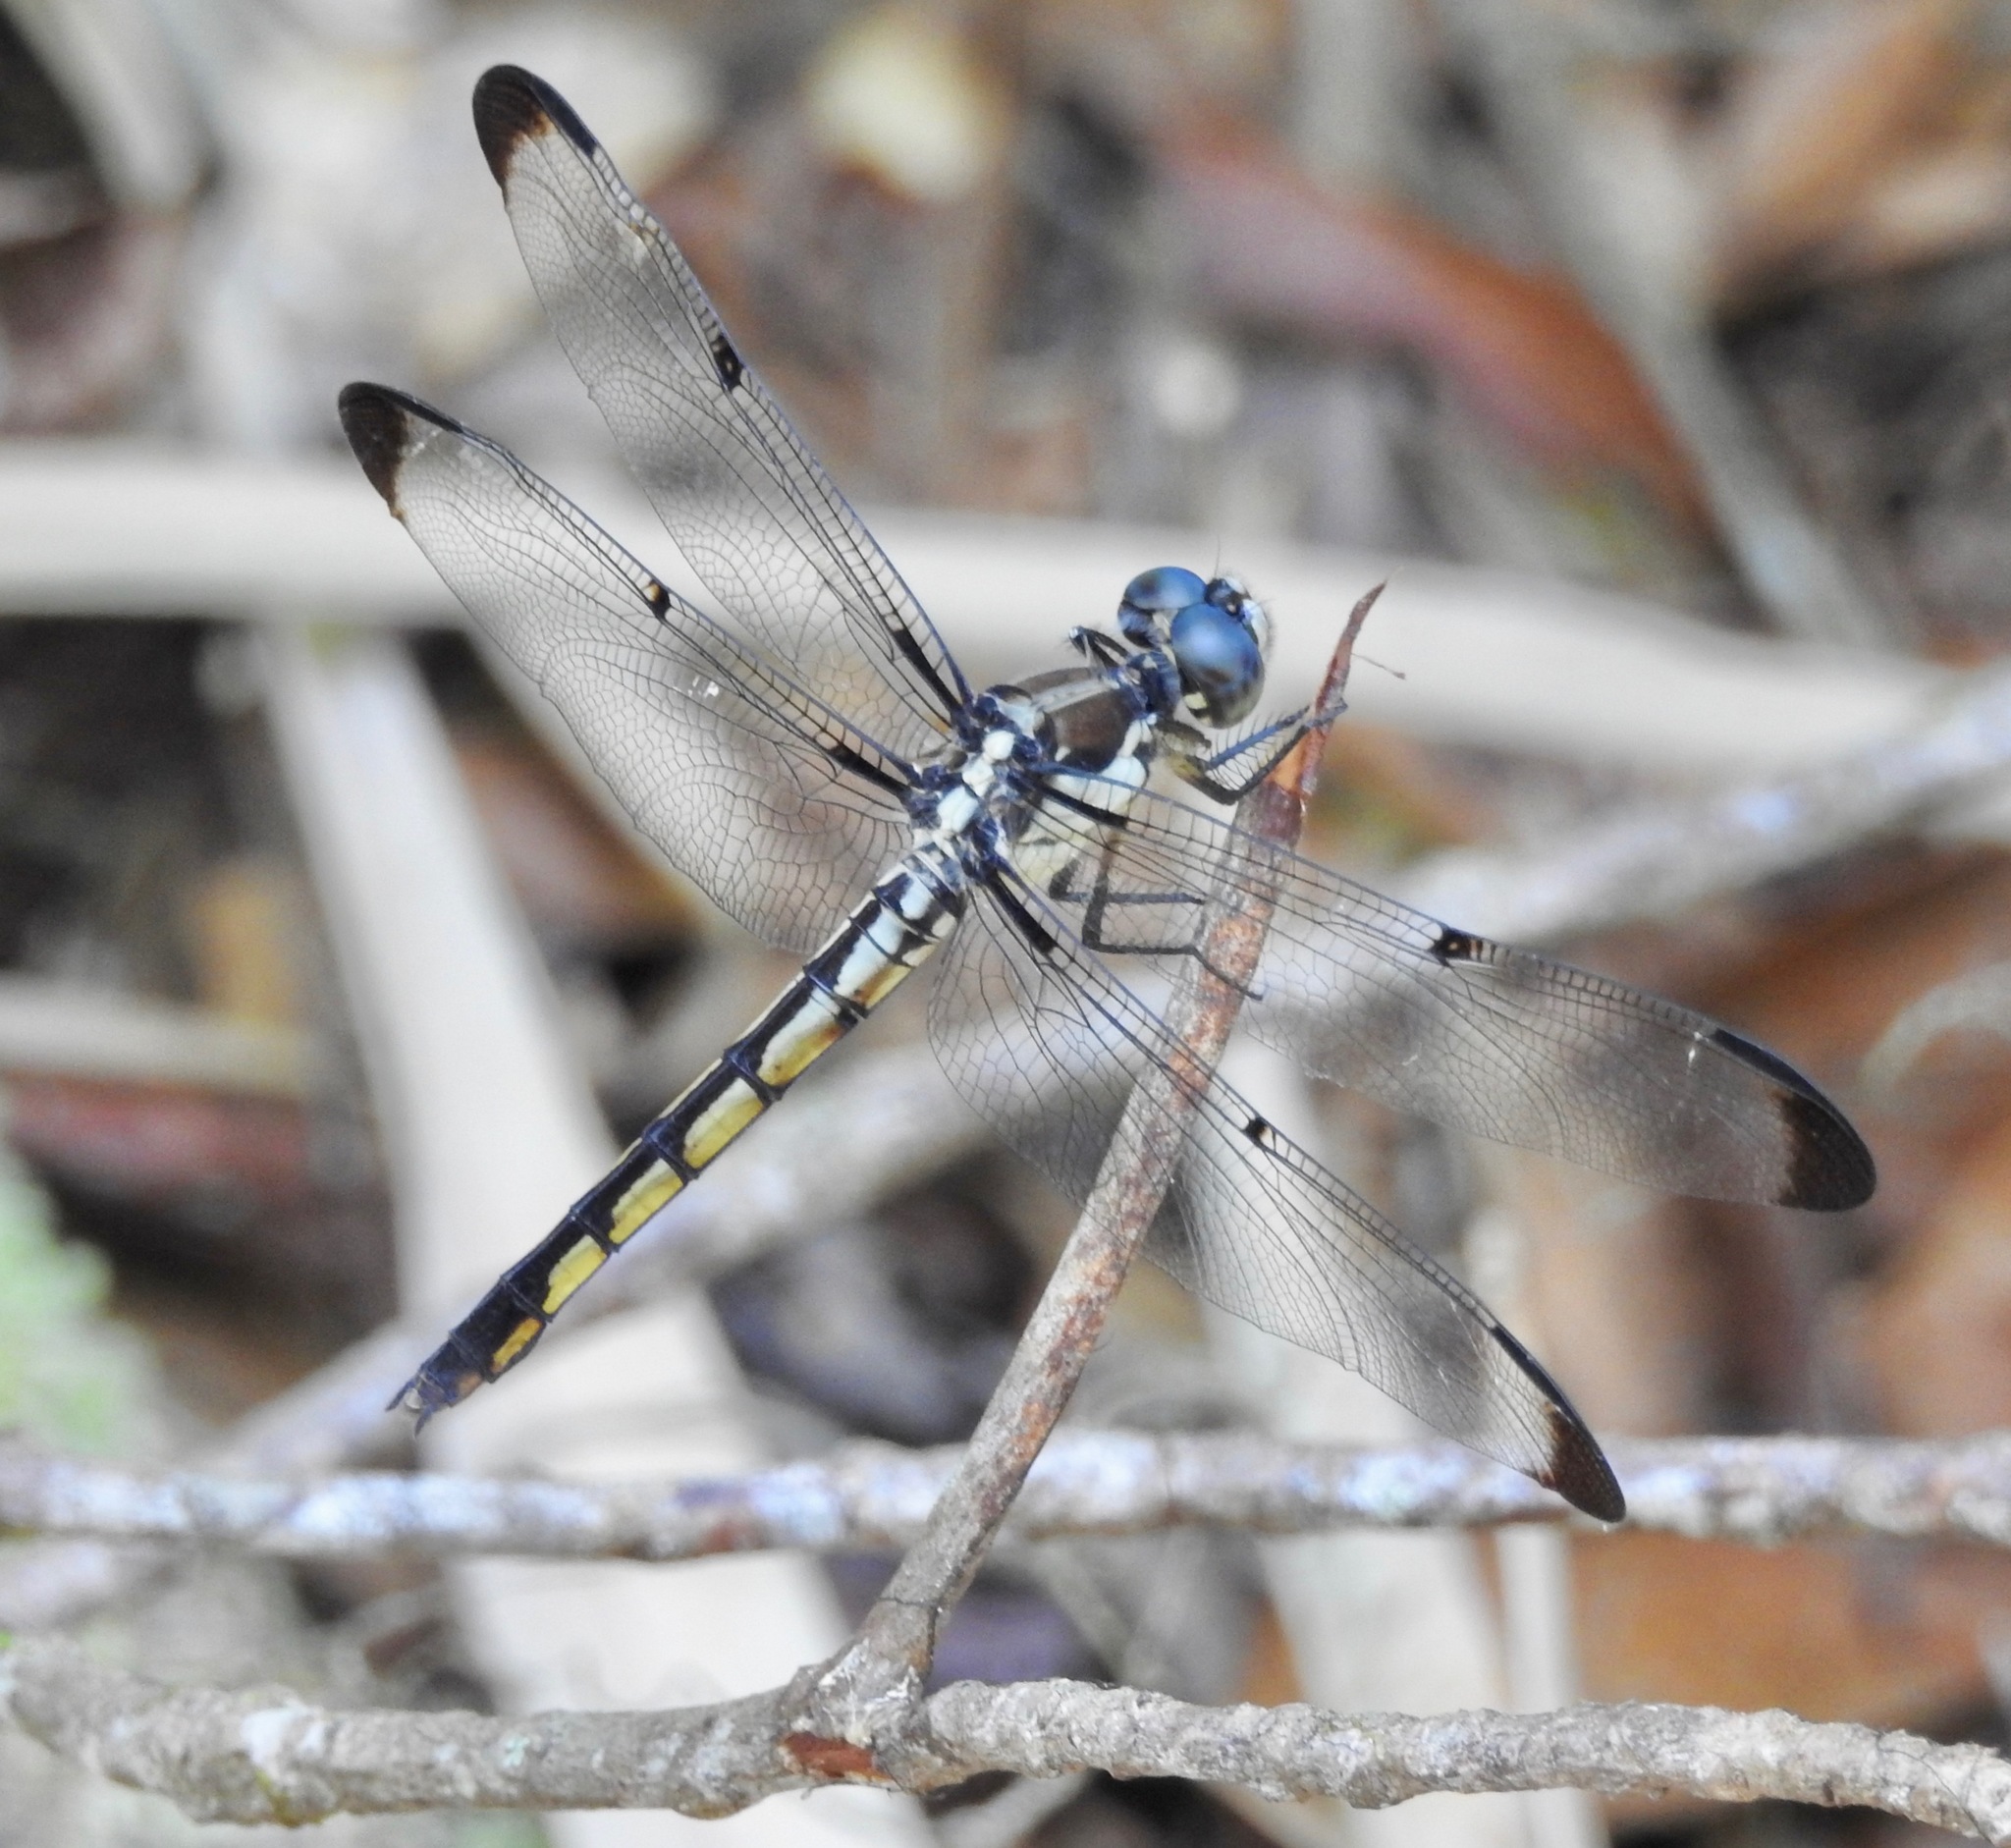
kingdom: Animalia
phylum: Arthropoda
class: Insecta
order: Odonata
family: Libellulidae
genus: Libellula
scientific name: Libellula vibrans
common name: Great blue skimmer
